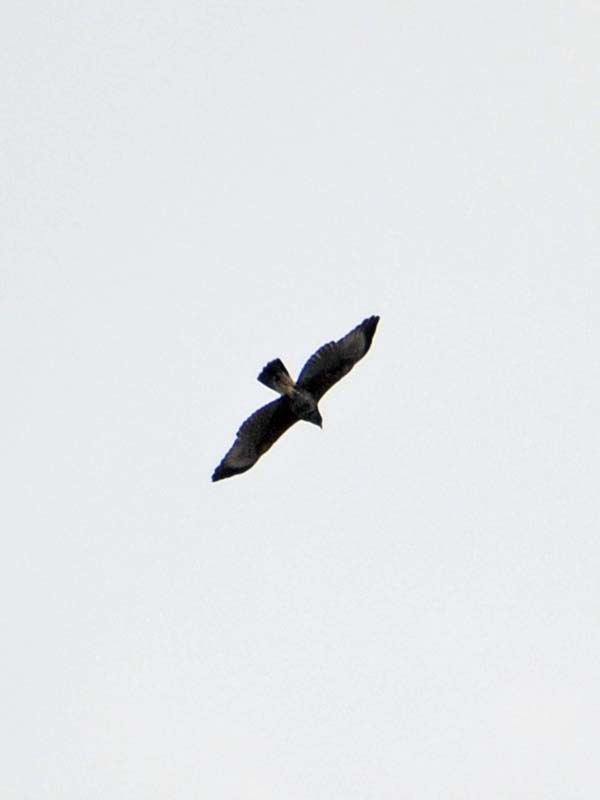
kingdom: Animalia
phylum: Chordata
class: Aves
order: Accipitriformes
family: Accipitridae
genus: Parabuteo
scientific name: Parabuteo unicinctus
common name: Harris's hawk
